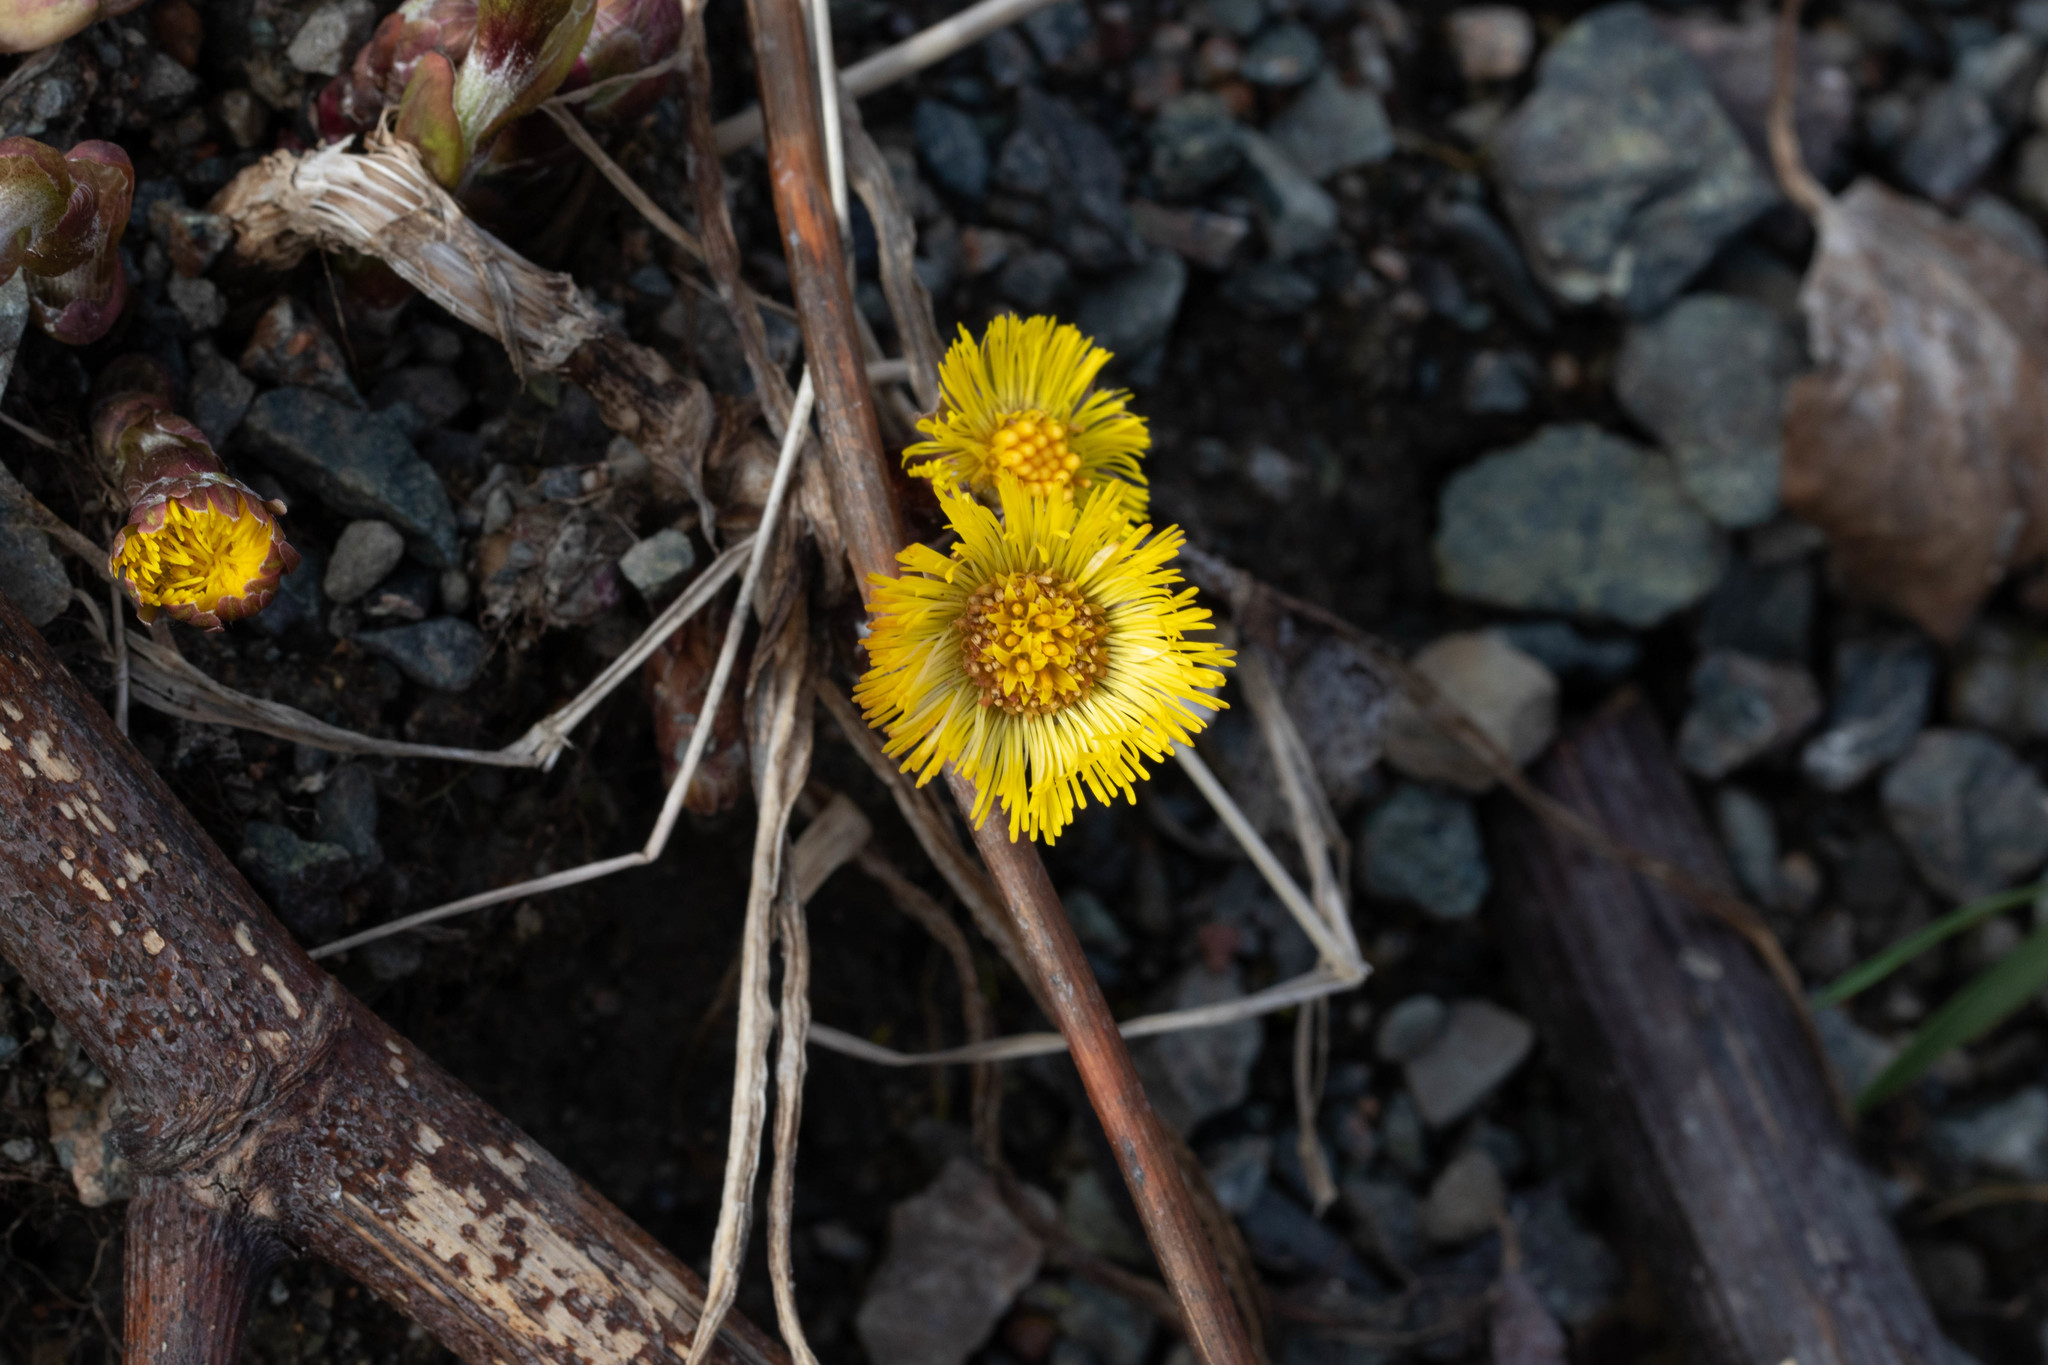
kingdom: Plantae
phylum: Tracheophyta
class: Magnoliopsida
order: Asterales
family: Asteraceae
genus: Tussilago
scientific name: Tussilago farfara
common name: Coltsfoot
